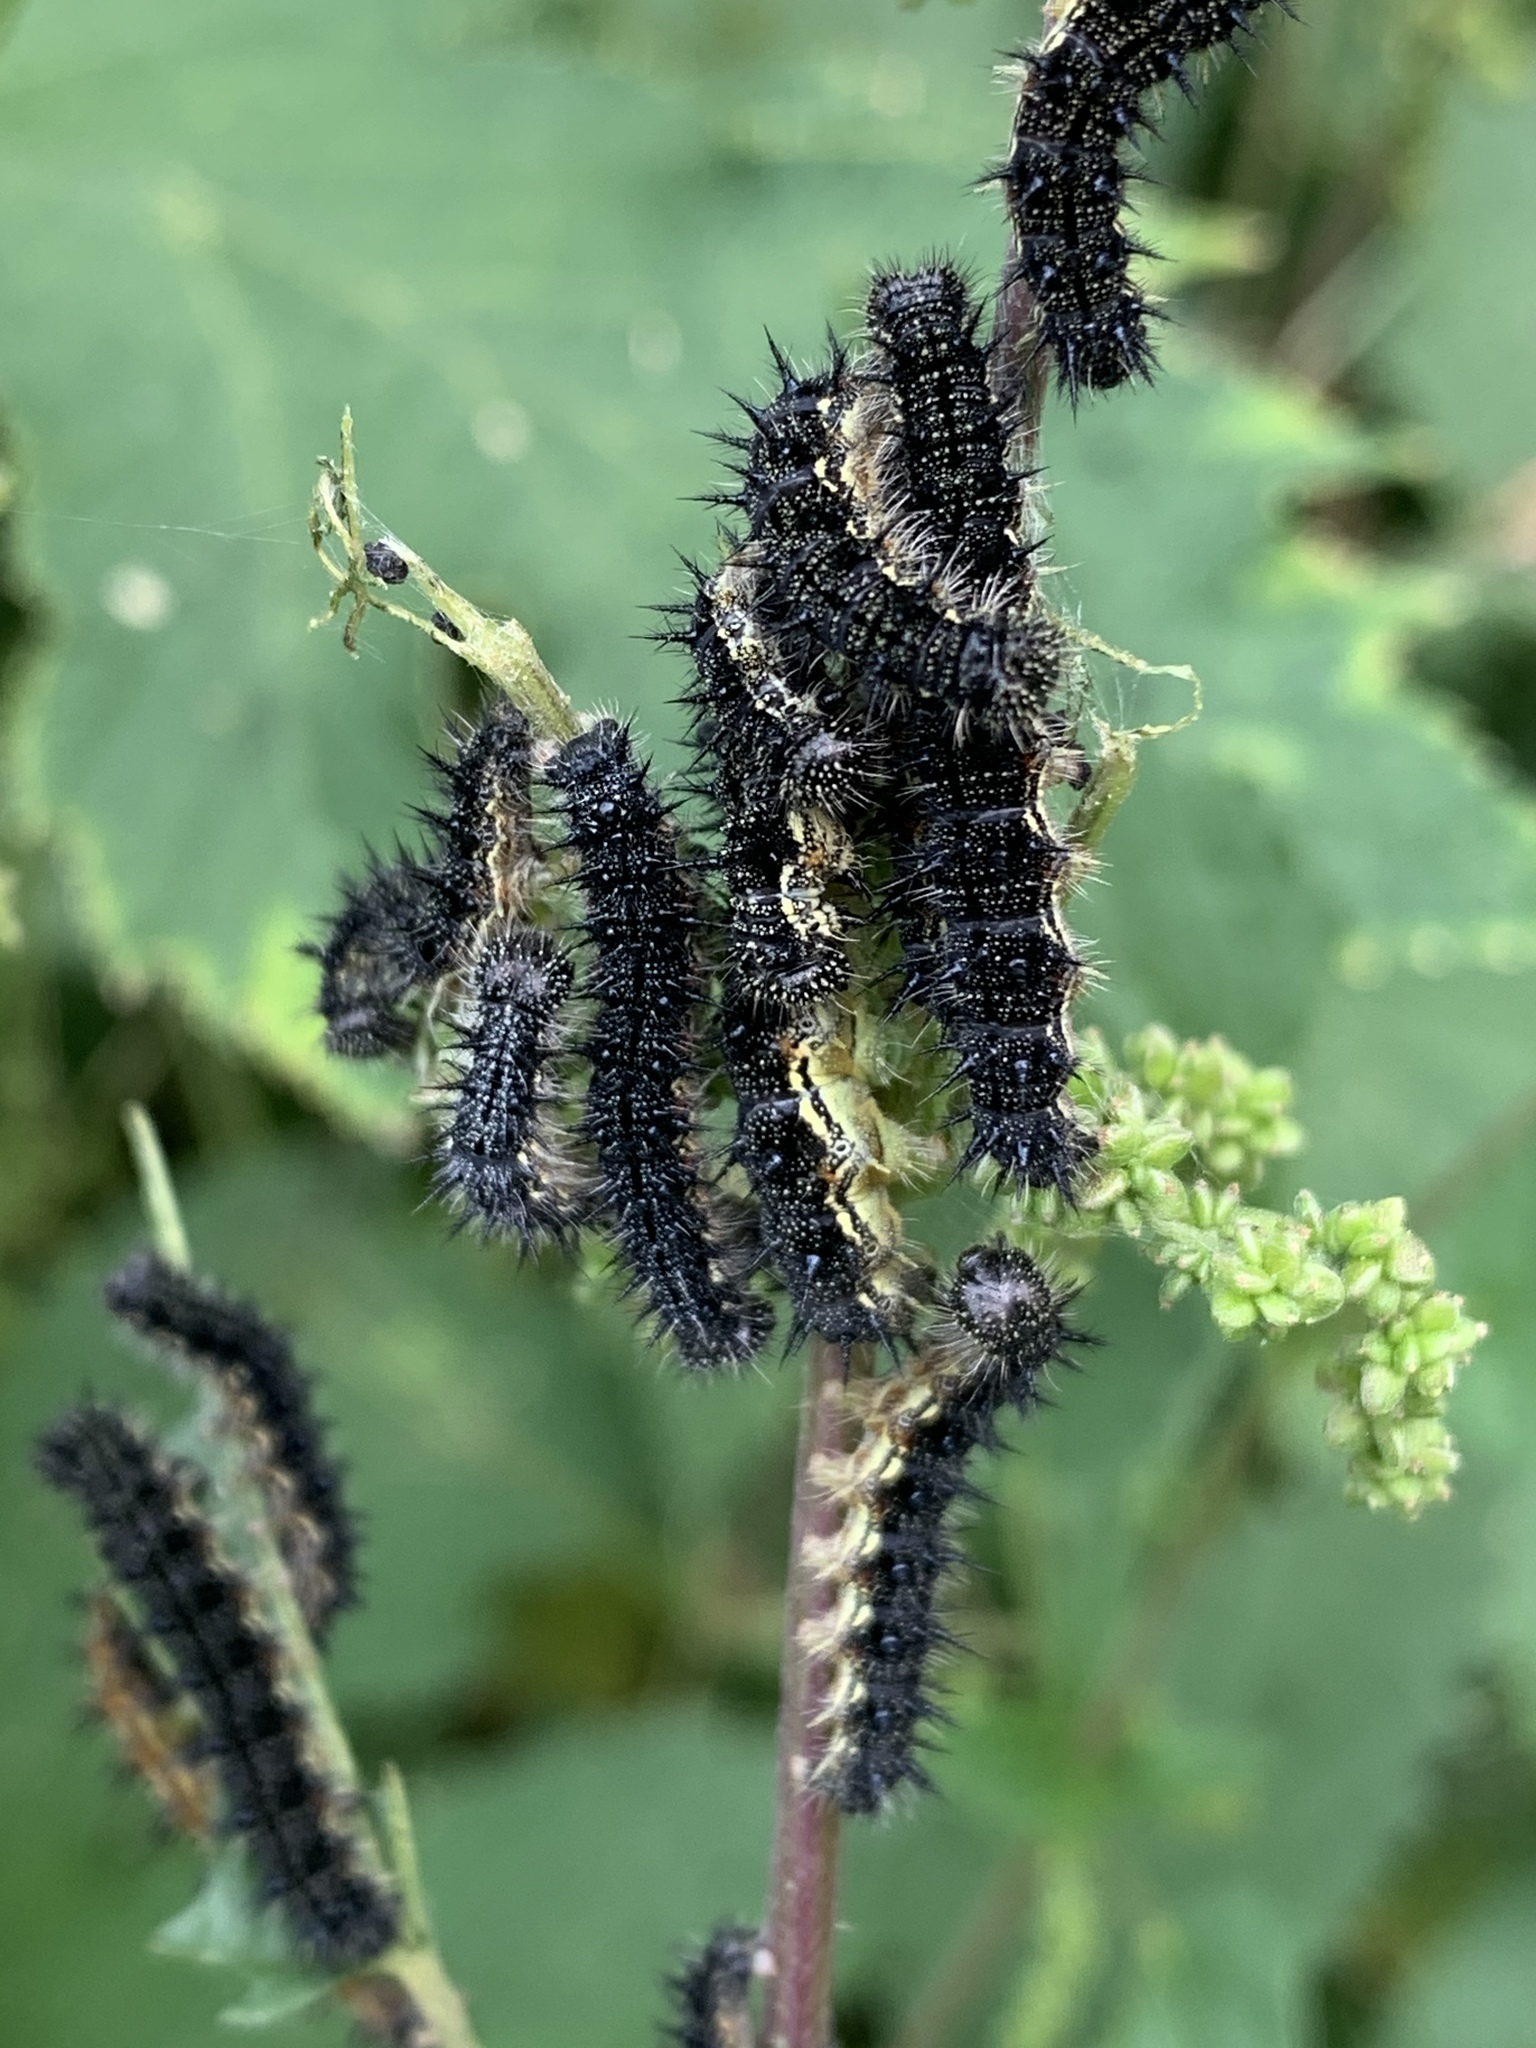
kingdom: Animalia
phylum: Arthropoda
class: Insecta
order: Lepidoptera
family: Nymphalidae
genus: Aglais
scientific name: Aglais milberti
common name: Milbert's tortoiseshell
